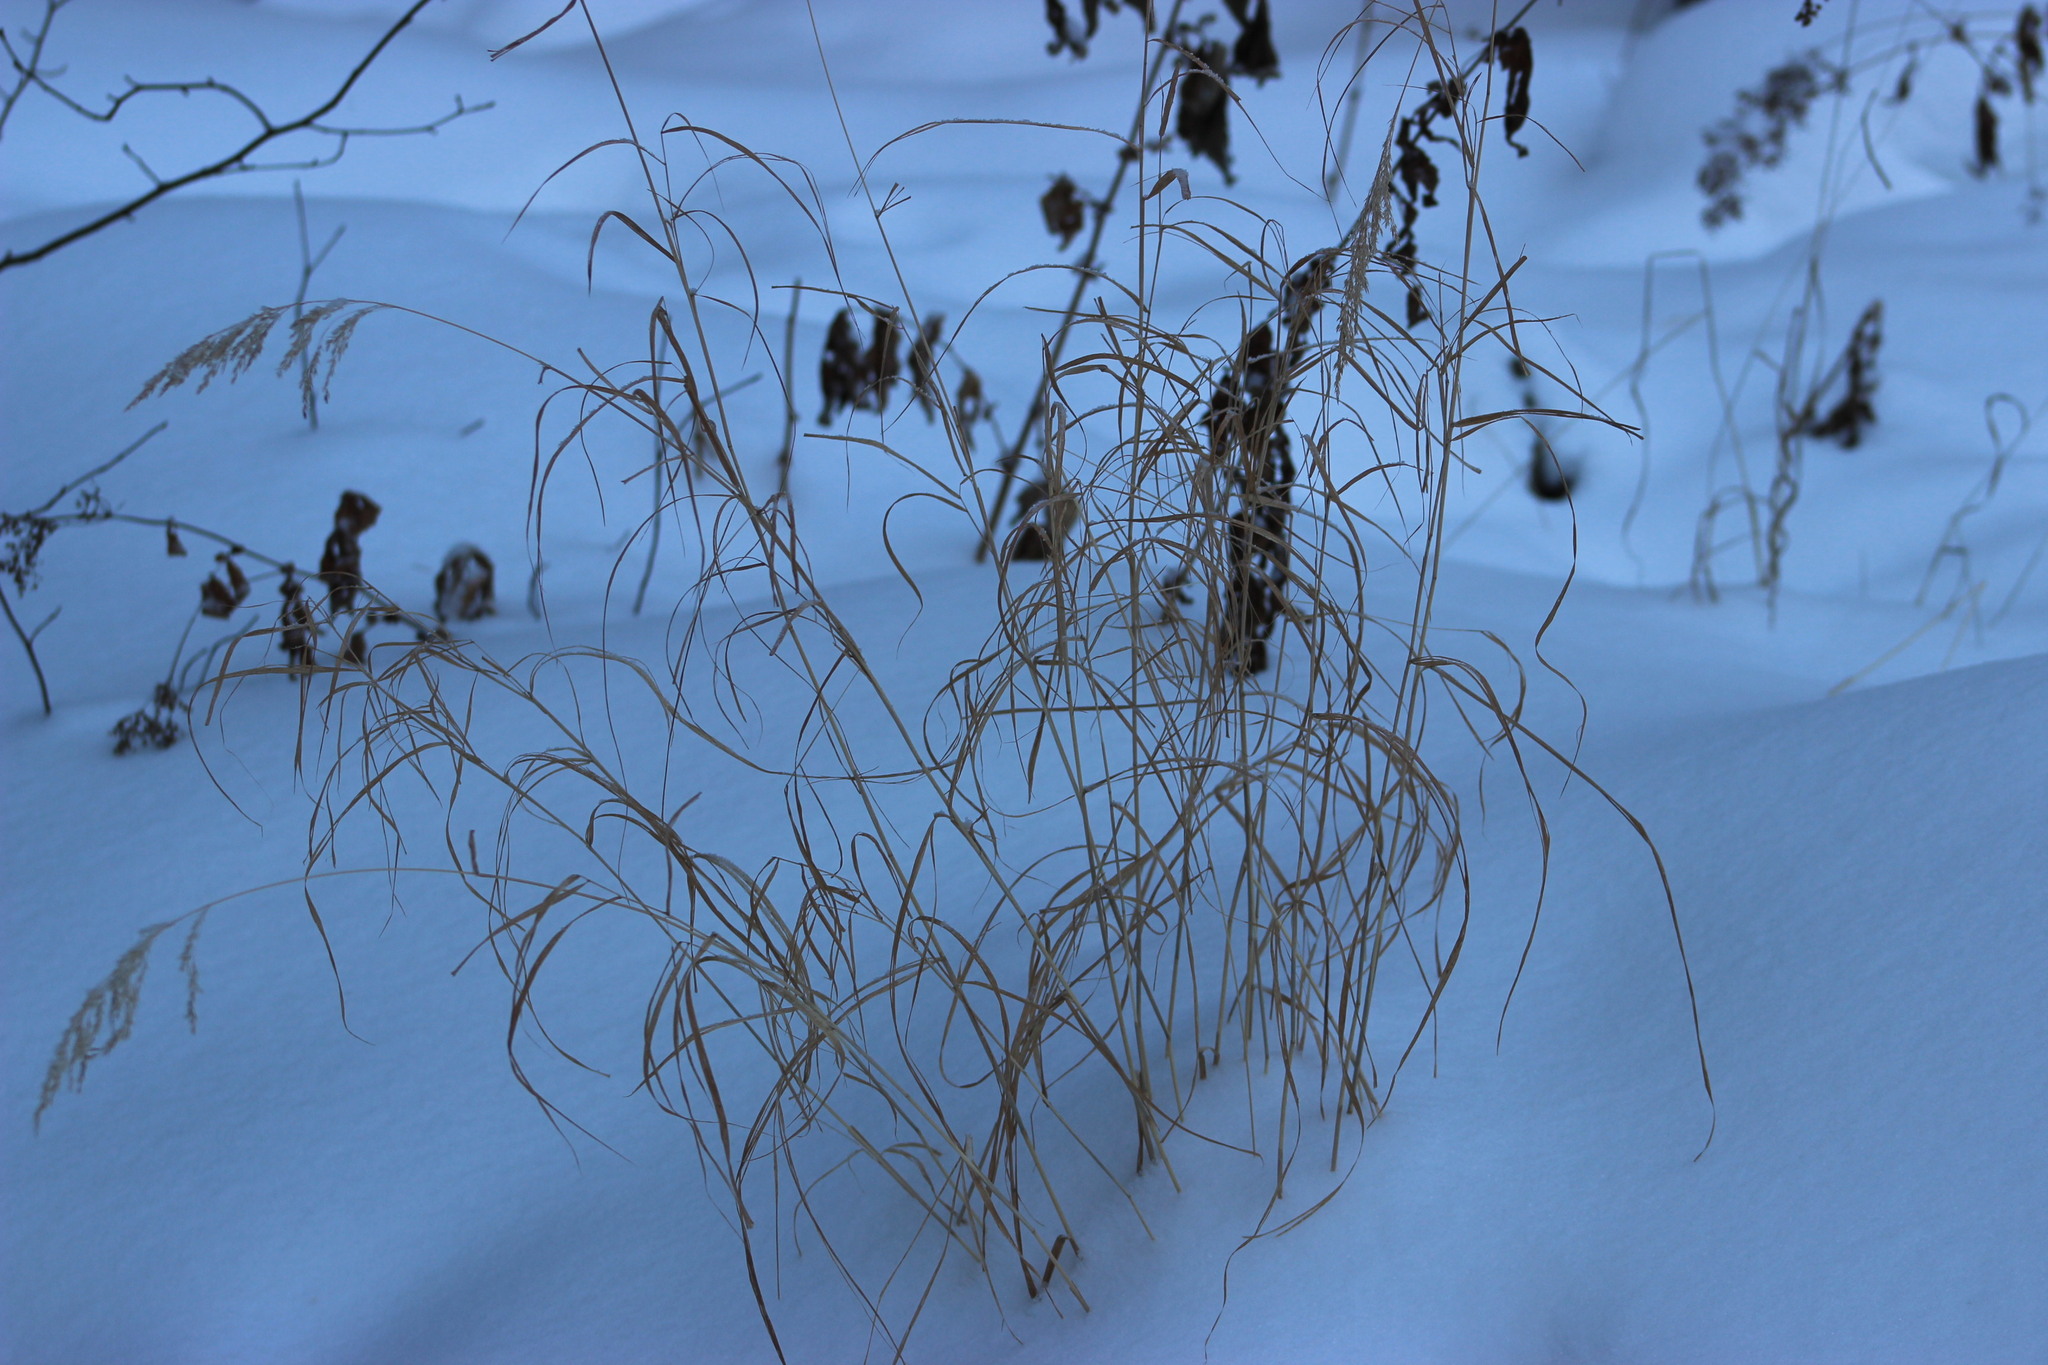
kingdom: Plantae
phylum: Tracheophyta
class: Liliopsida
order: Poales
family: Poaceae
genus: Calamagrostis
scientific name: Calamagrostis purpurea
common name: Scandinavian small-reed
